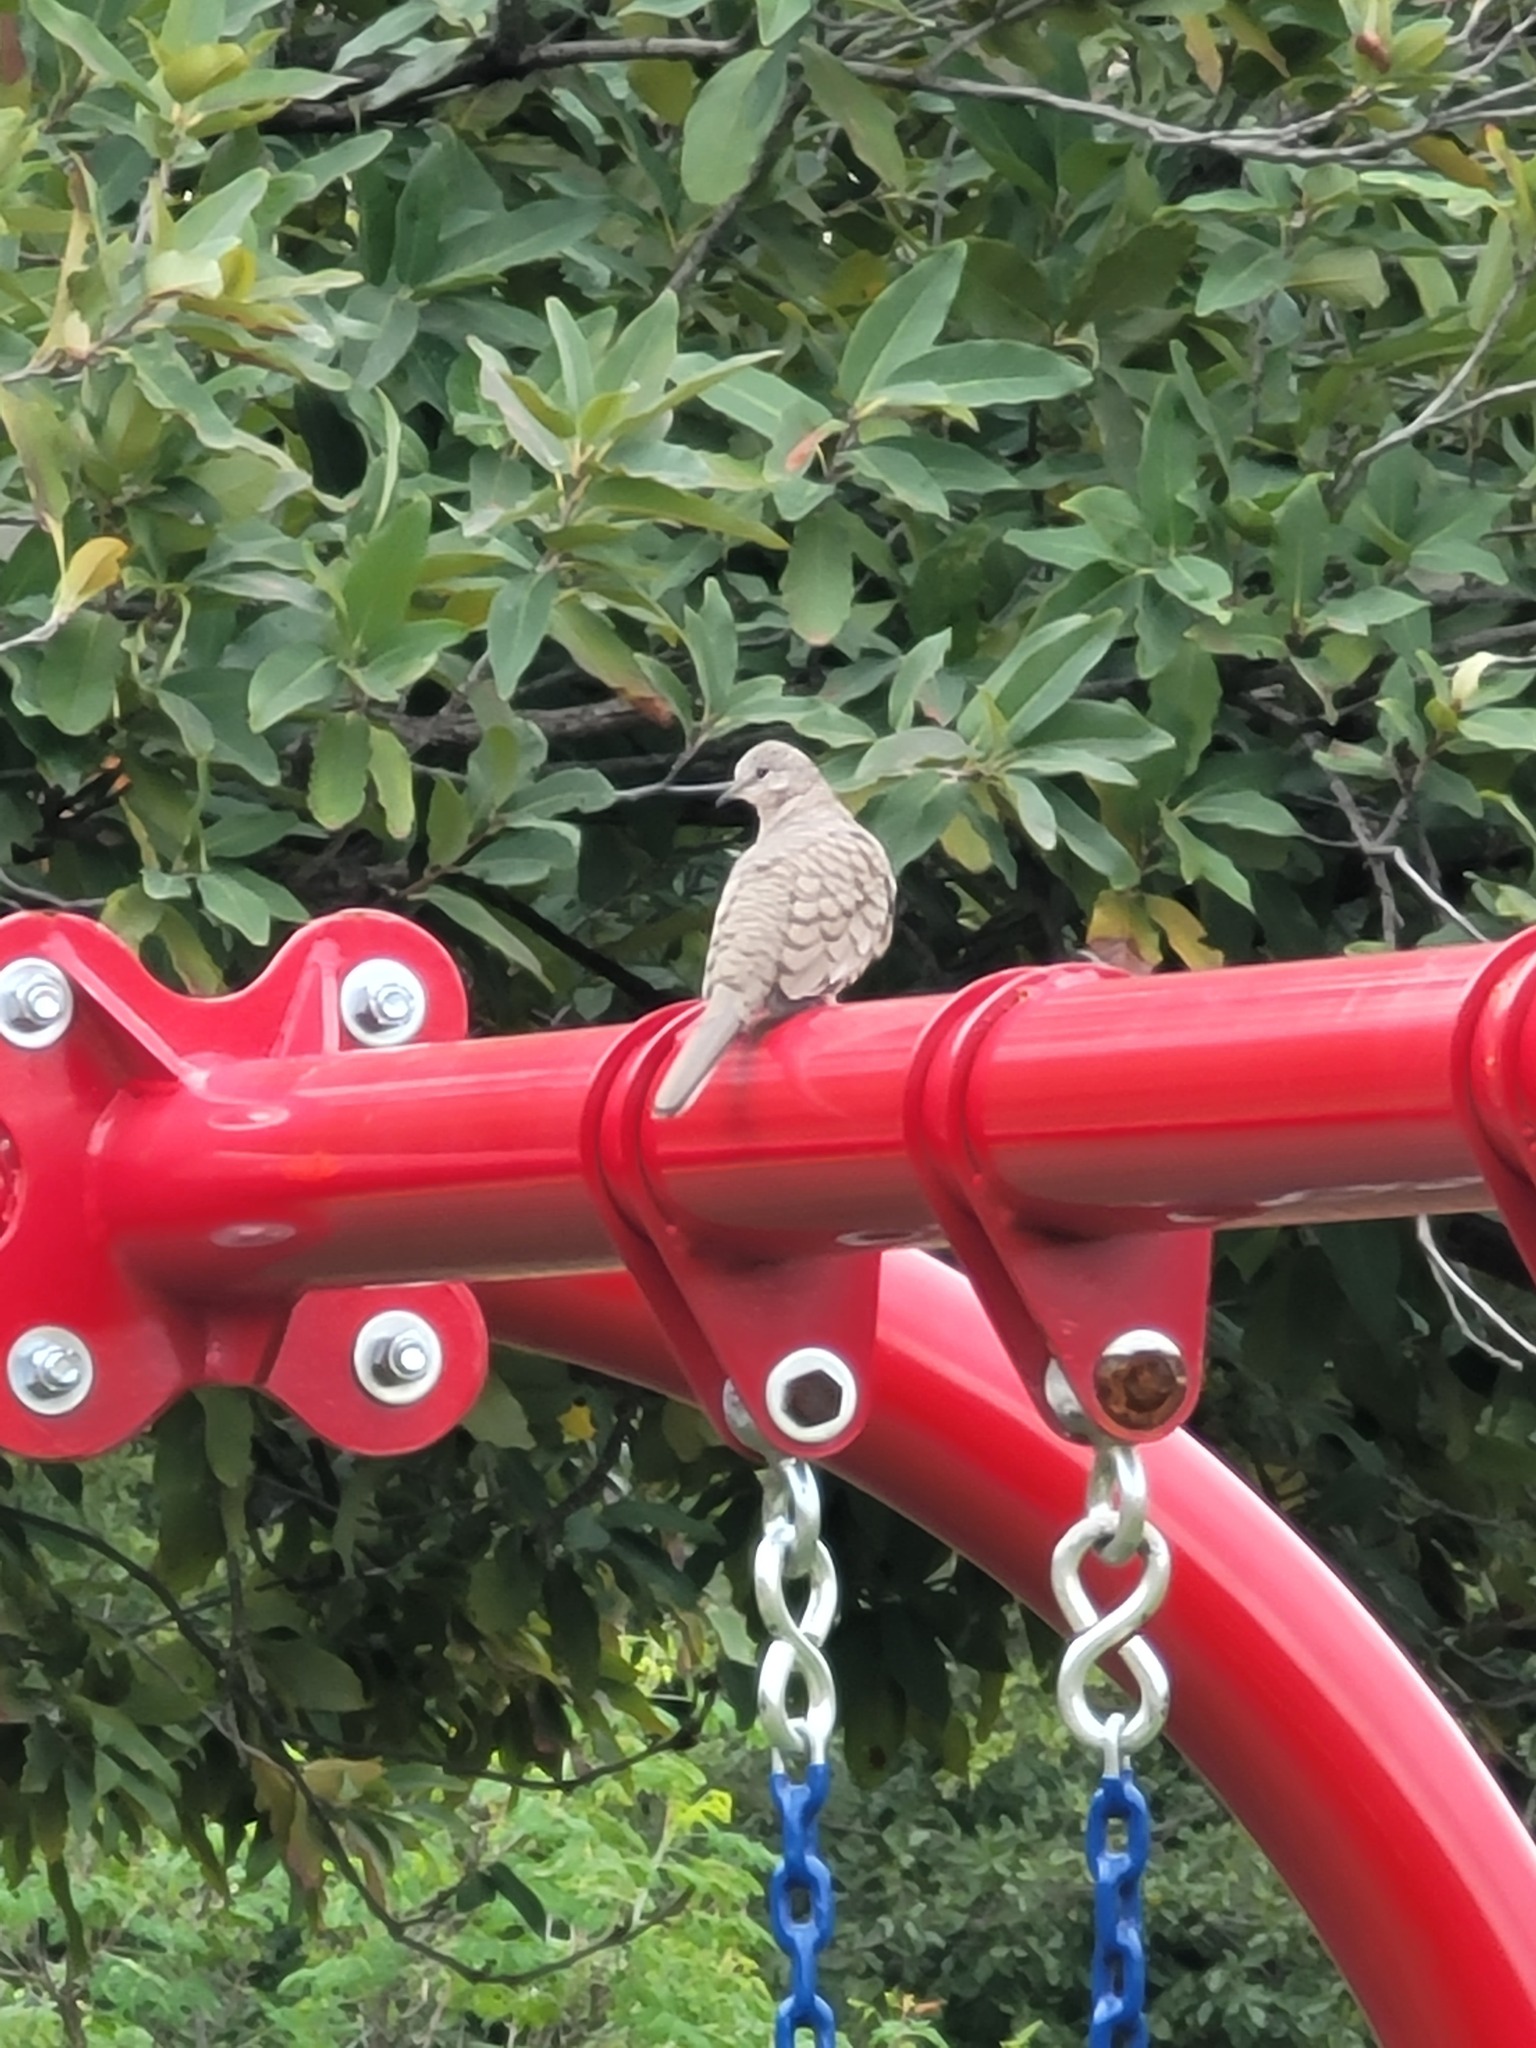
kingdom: Animalia
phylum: Chordata
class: Aves
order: Columbiformes
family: Columbidae
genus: Columbina
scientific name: Columbina inca
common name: Inca dove
